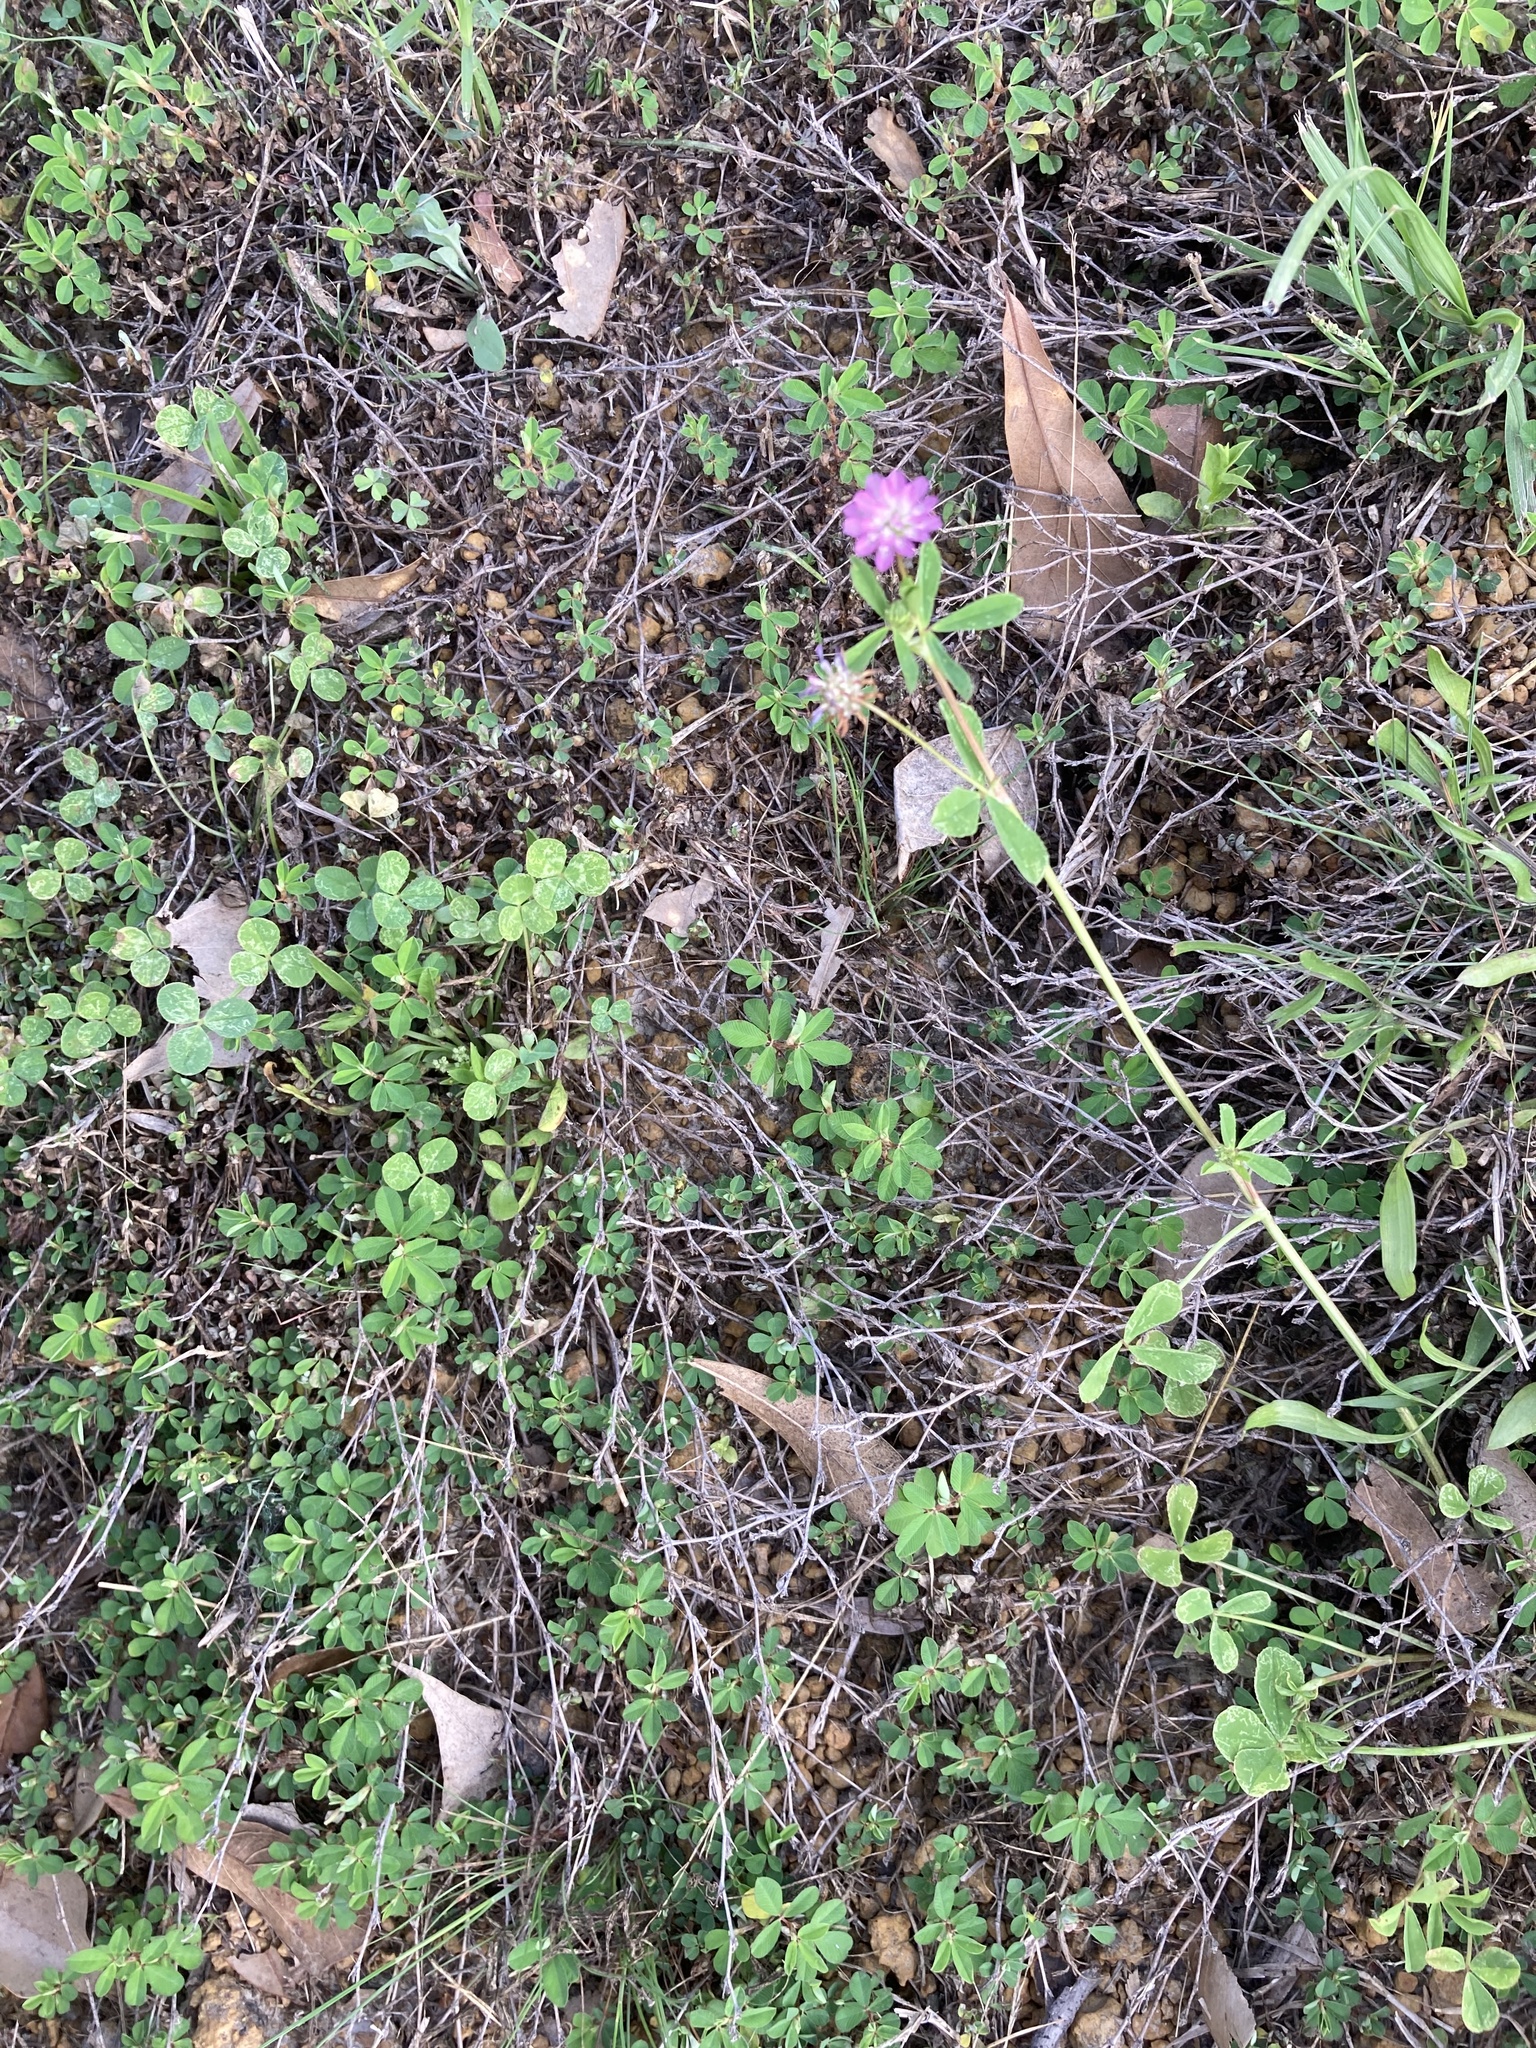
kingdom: Plantae
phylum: Tracheophyta
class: Magnoliopsida
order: Fabales
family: Fabaceae
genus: Trifolium
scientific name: Trifolium resupinatum
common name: Reversed clover
